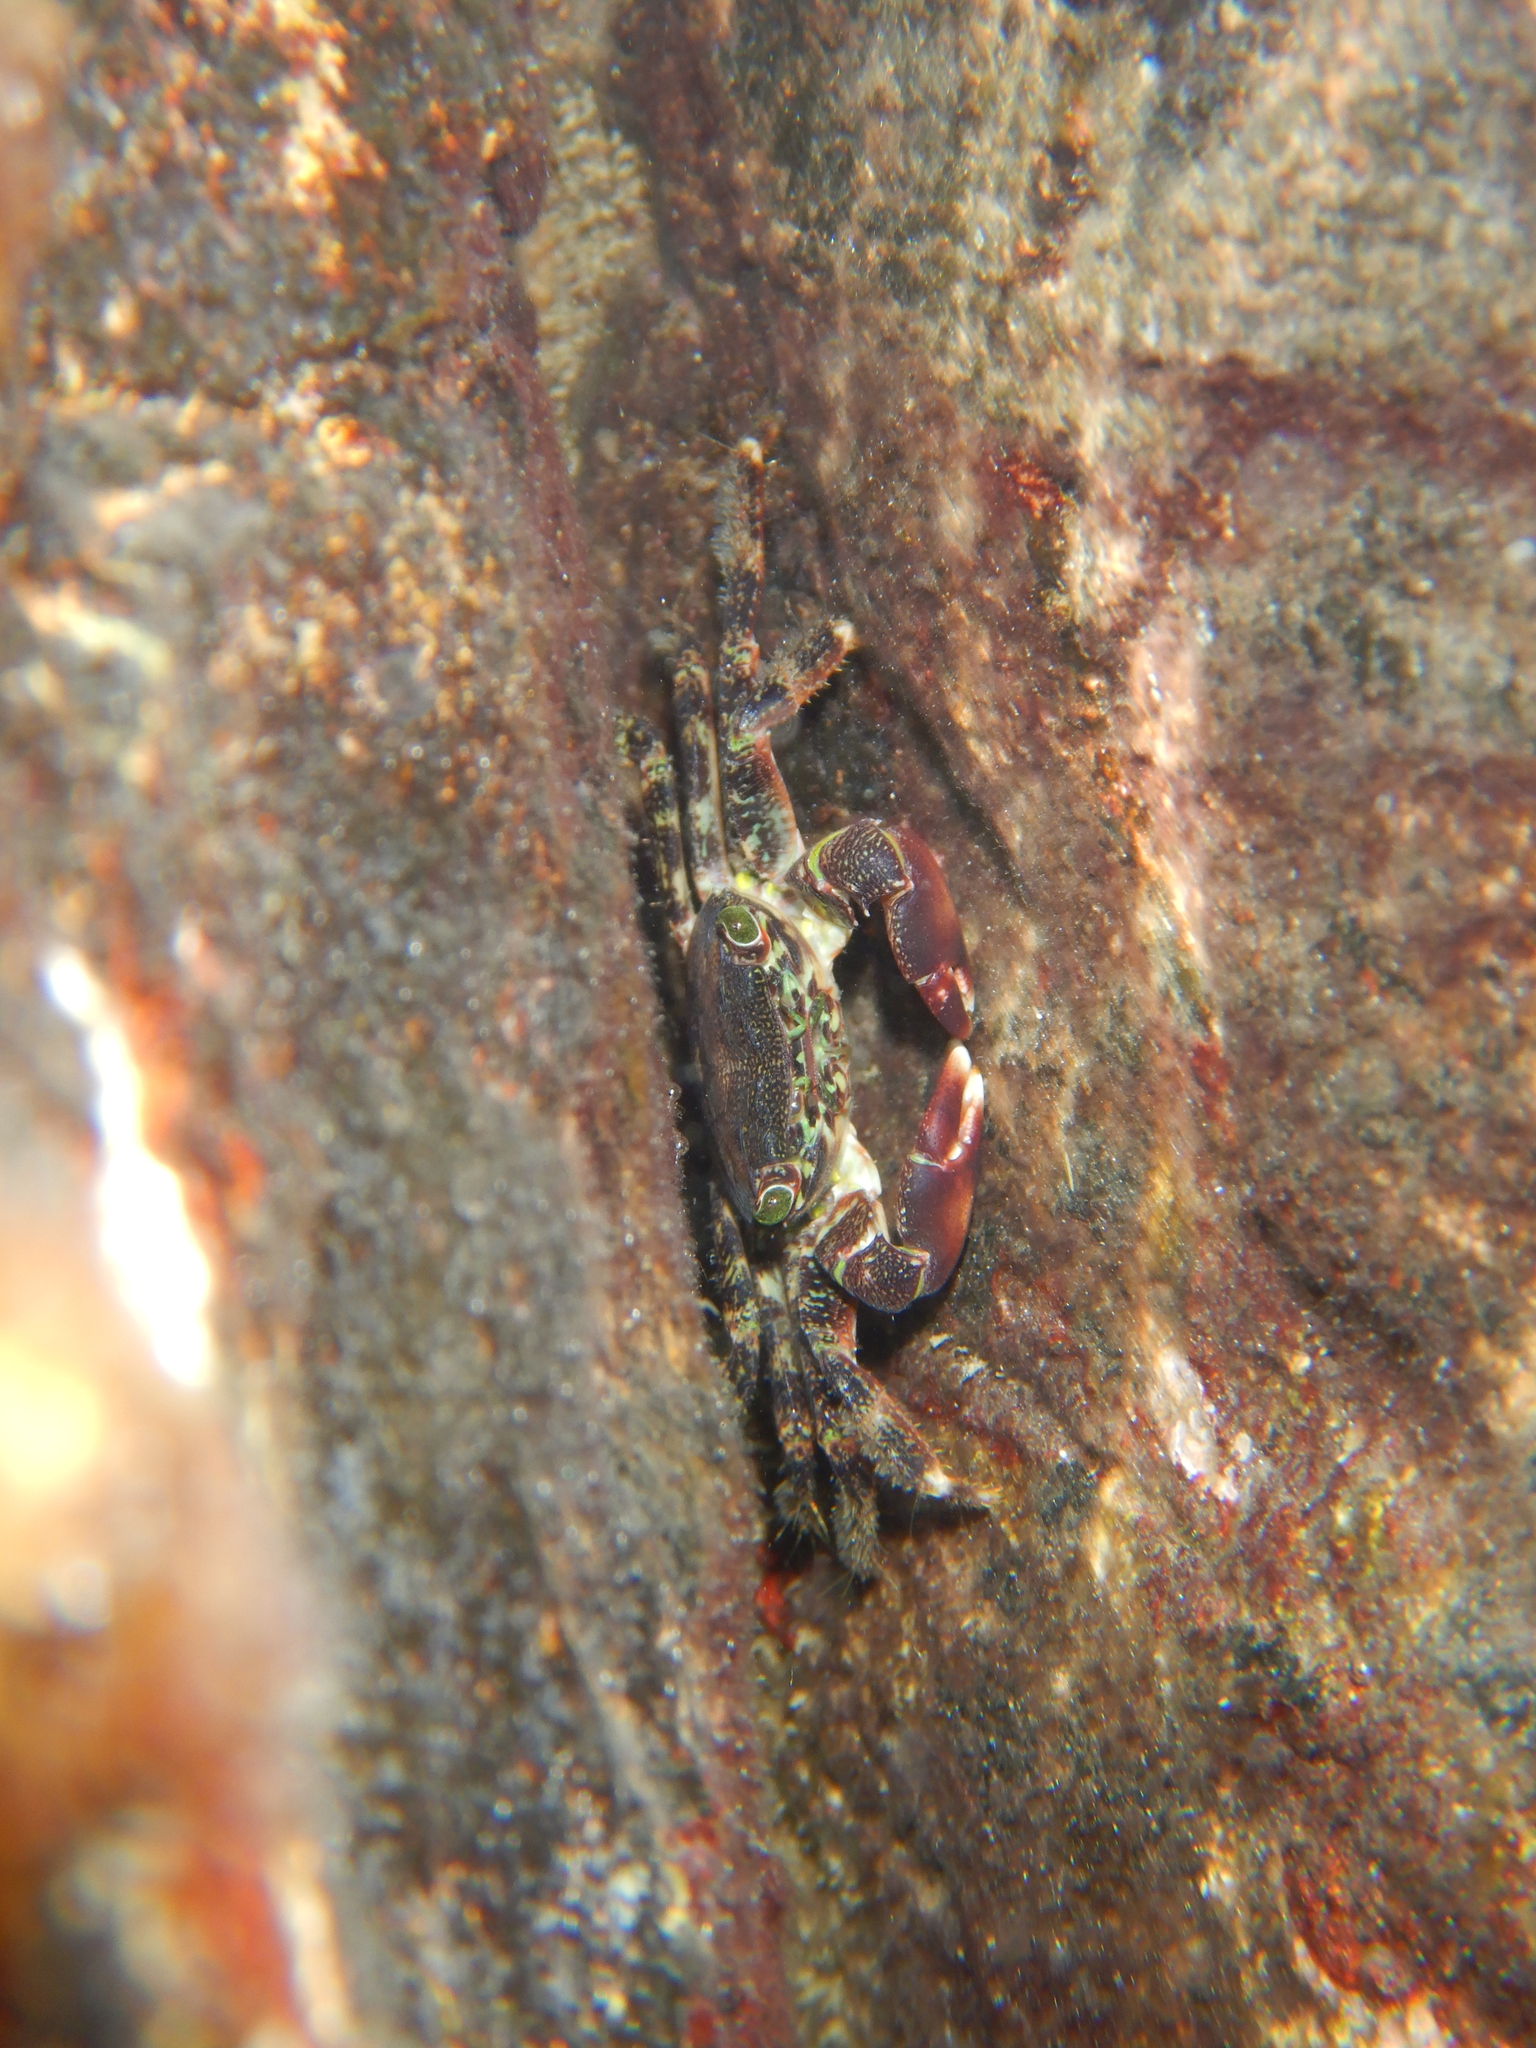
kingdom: Animalia
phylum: Arthropoda
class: Malacostraca
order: Decapoda
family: Grapsidae
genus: Pachygrapsus
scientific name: Pachygrapsus marmoratus
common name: Marbled rock crab
